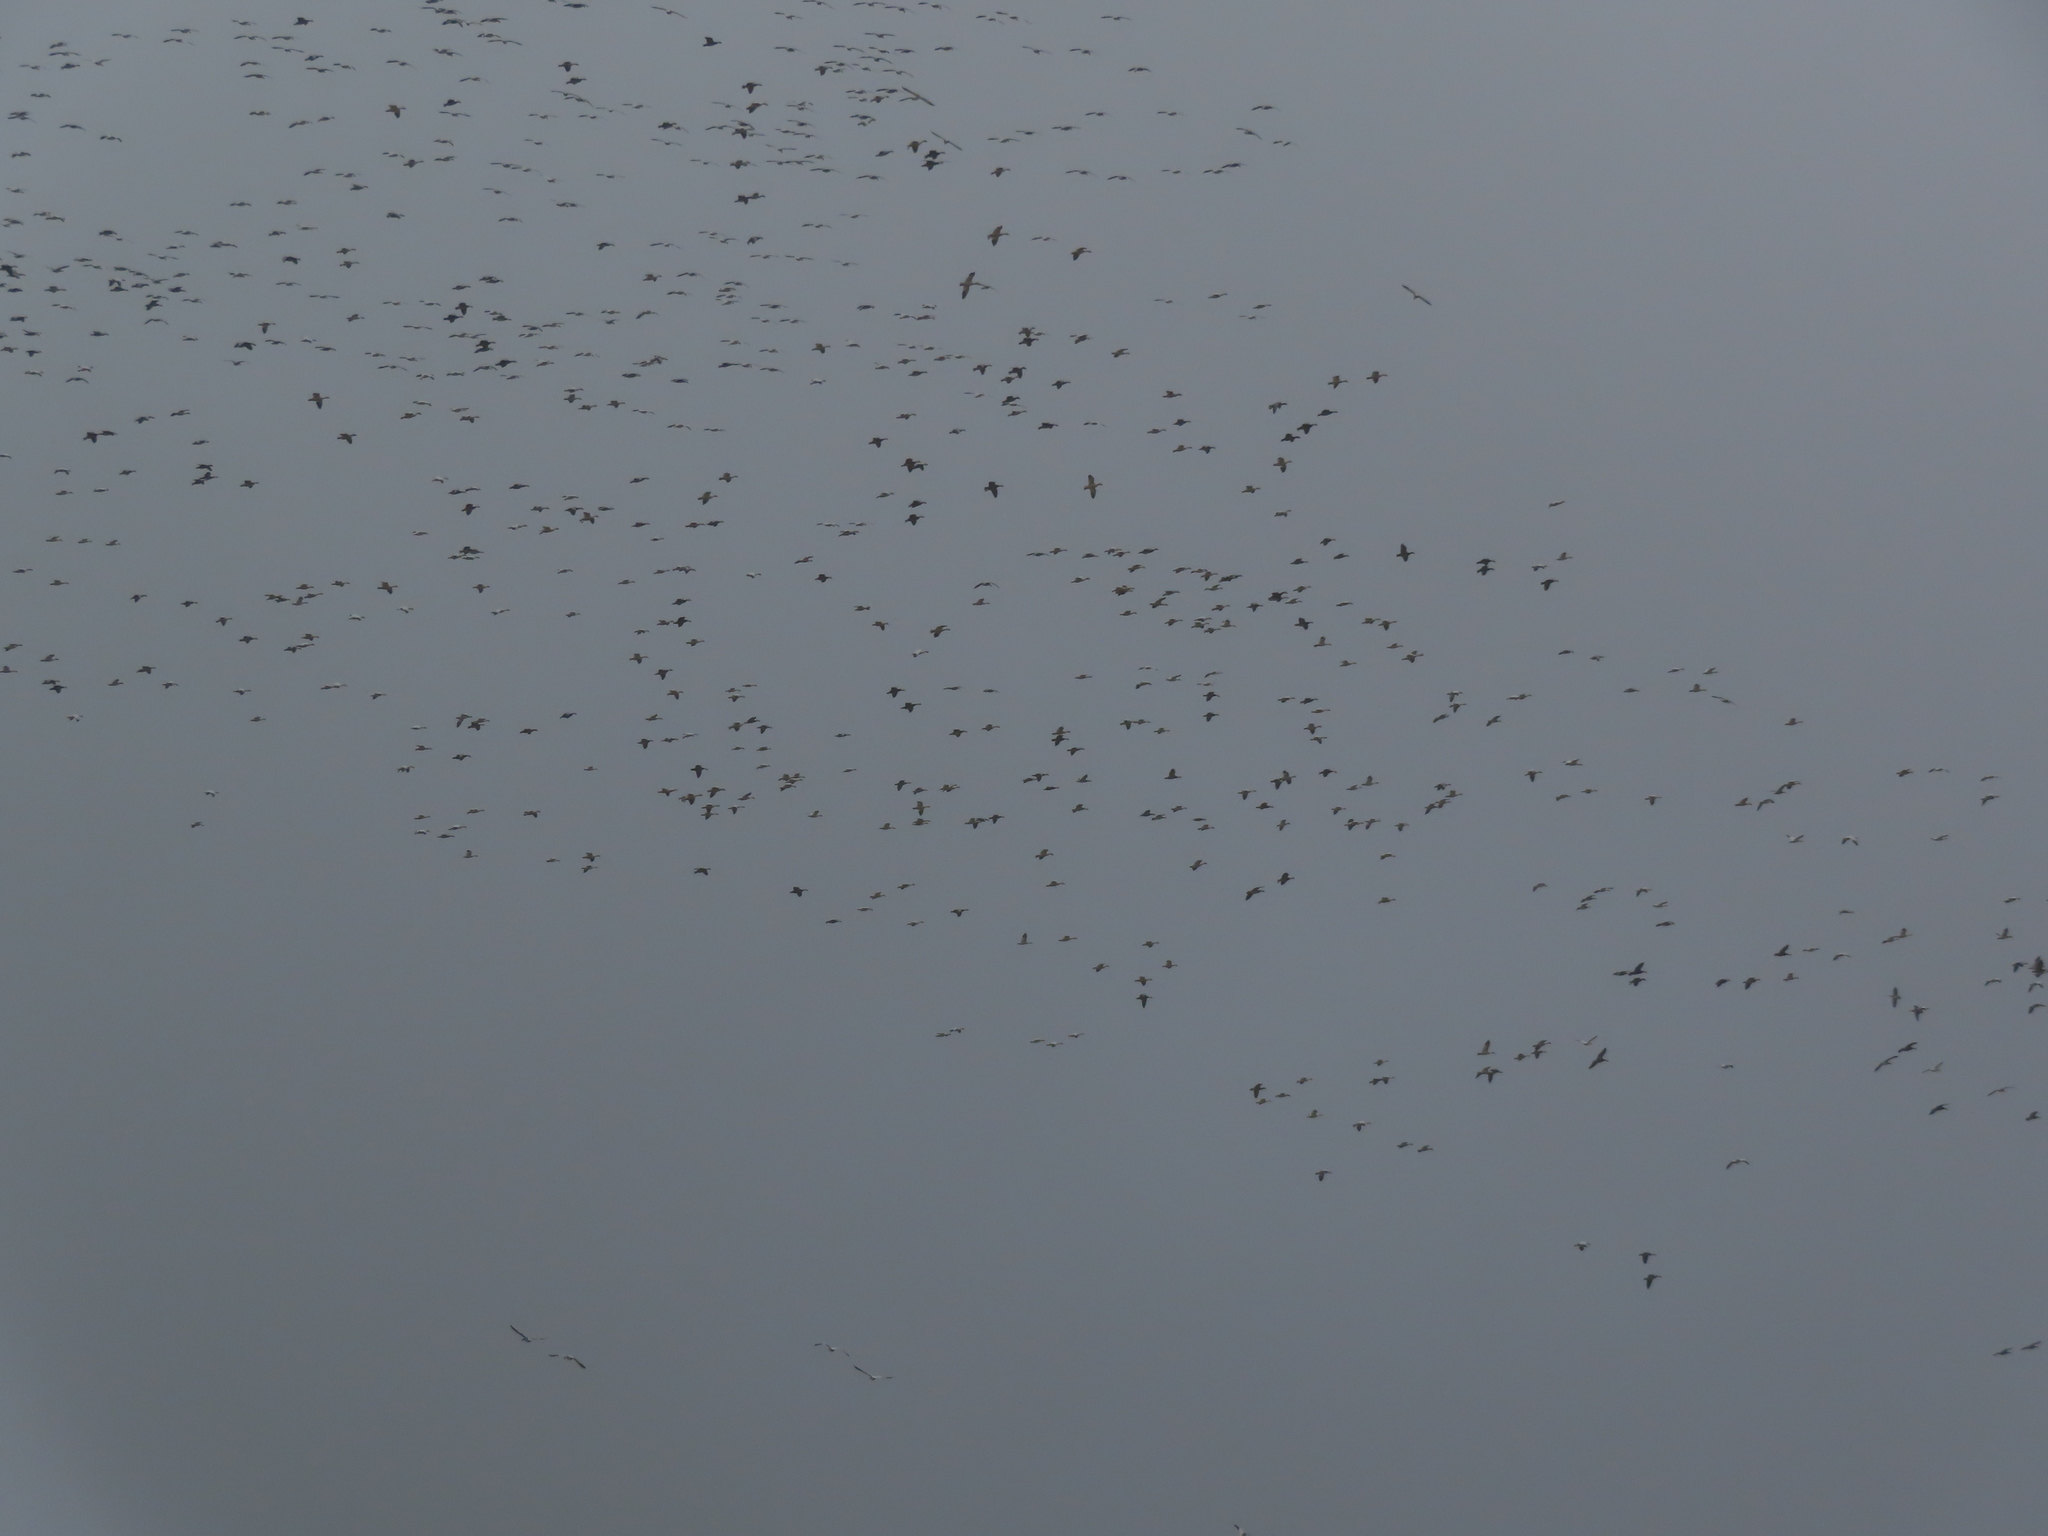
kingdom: Animalia
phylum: Chordata
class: Aves
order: Anseriformes
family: Anatidae
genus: Anser
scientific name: Anser caerulescens
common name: Snow goose
